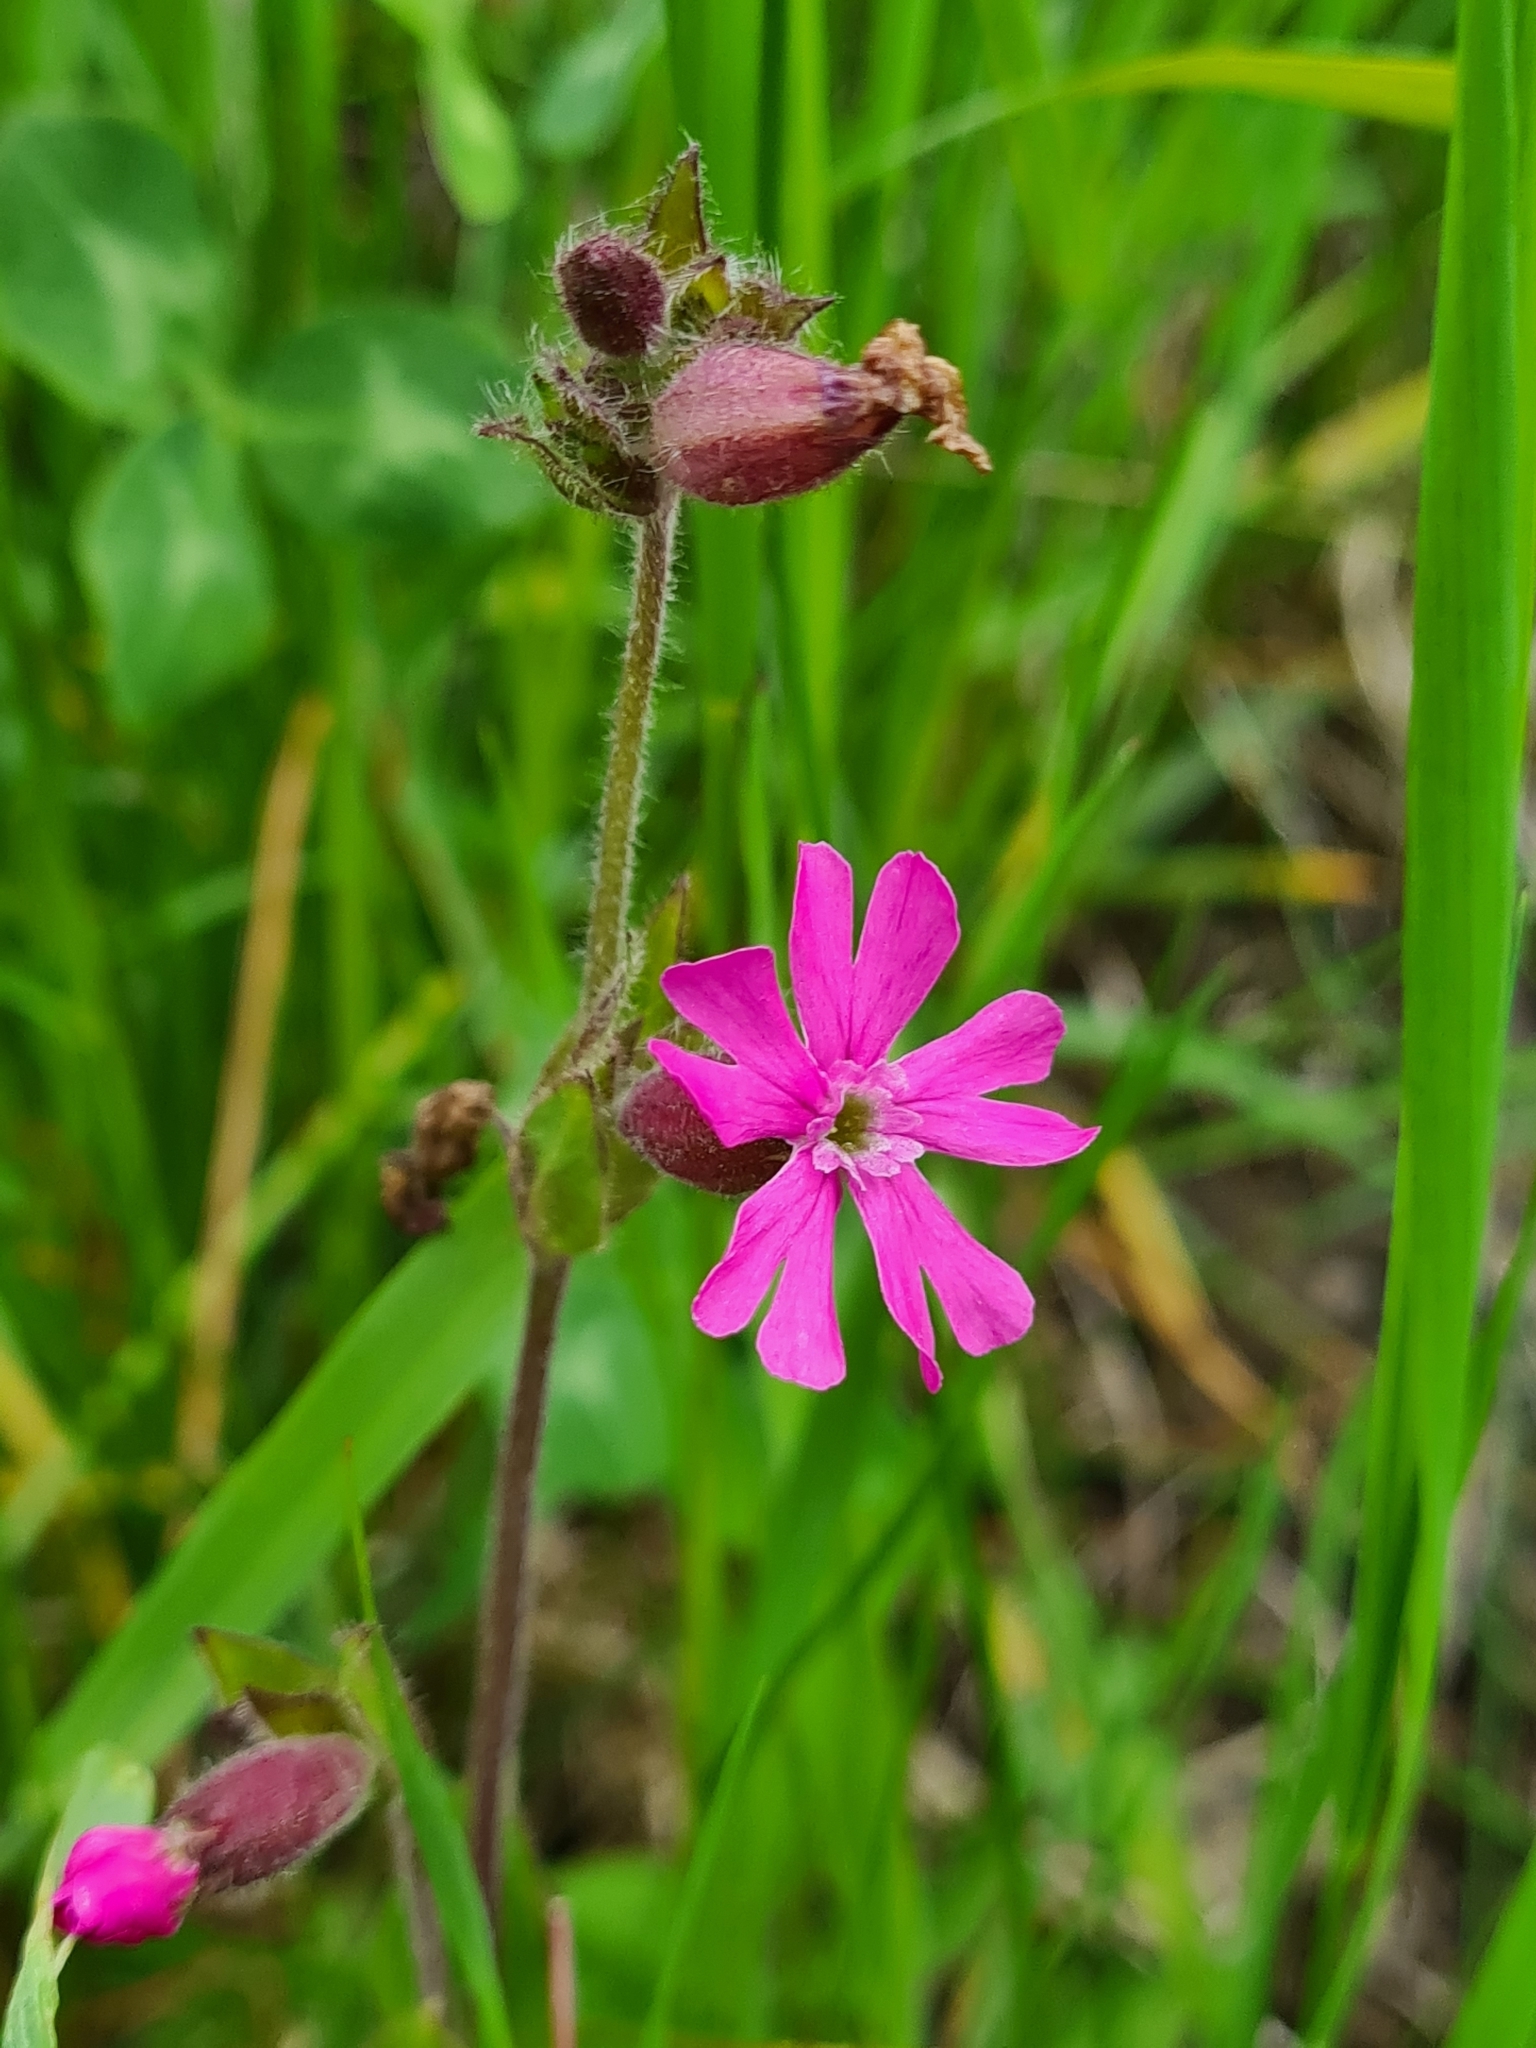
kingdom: Plantae
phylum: Tracheophyta
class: Magnoliopsida
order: Caryophyllales
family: Caryophyllaceae
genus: Silene
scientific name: Silene dioica
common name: Red campion
